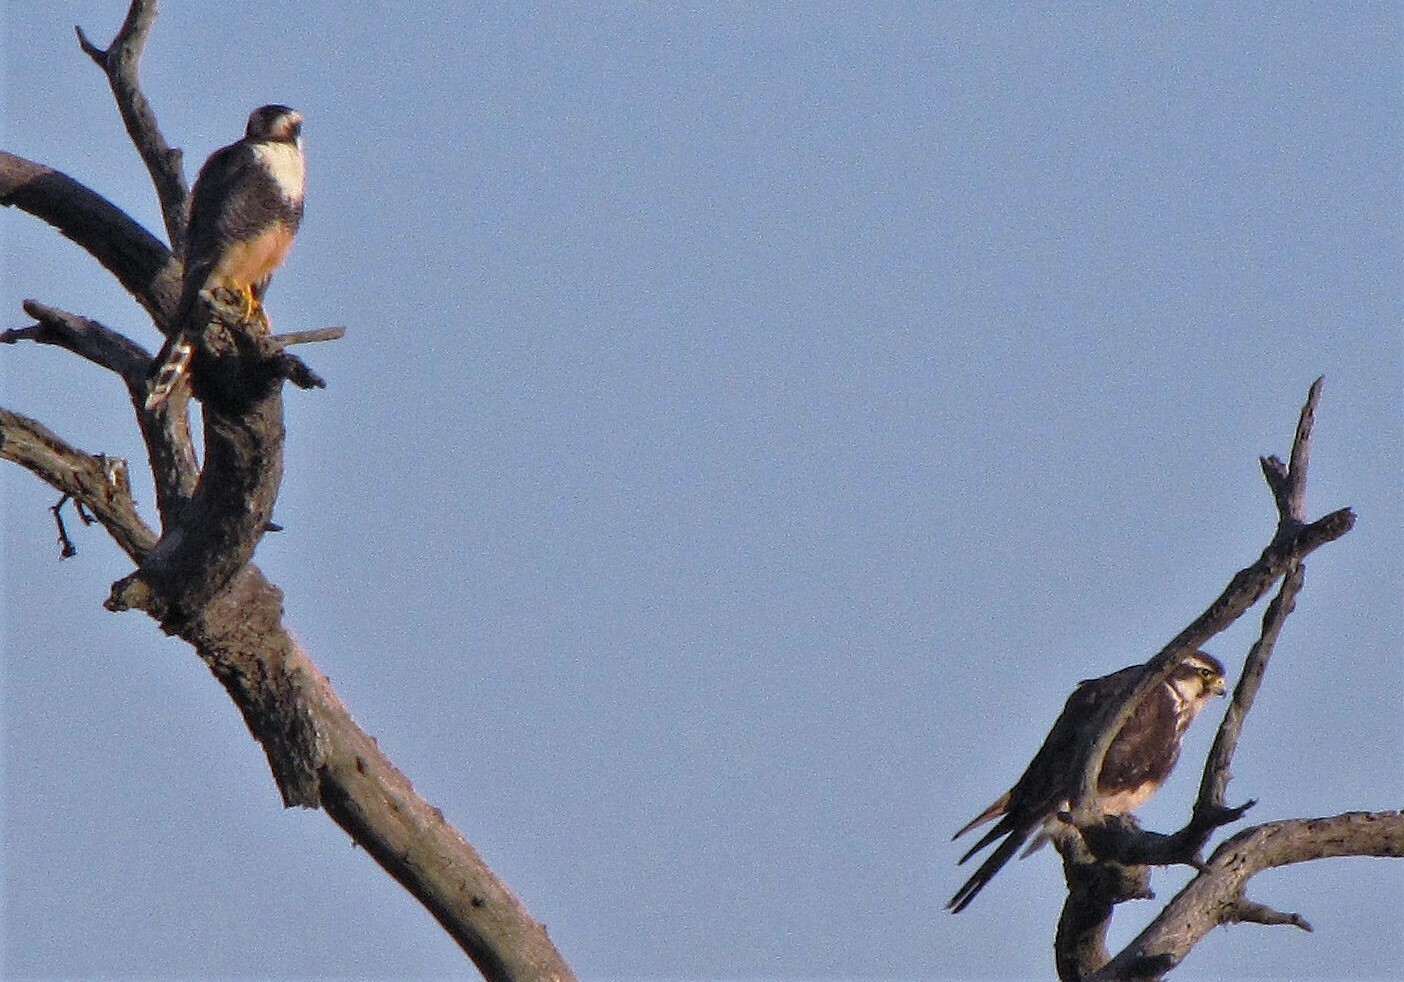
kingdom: Animalia
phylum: Chordata
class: Aves
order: Falconiformes
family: Falconidae
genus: Falco
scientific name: Falco femoralis
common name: Aplomado falcon
